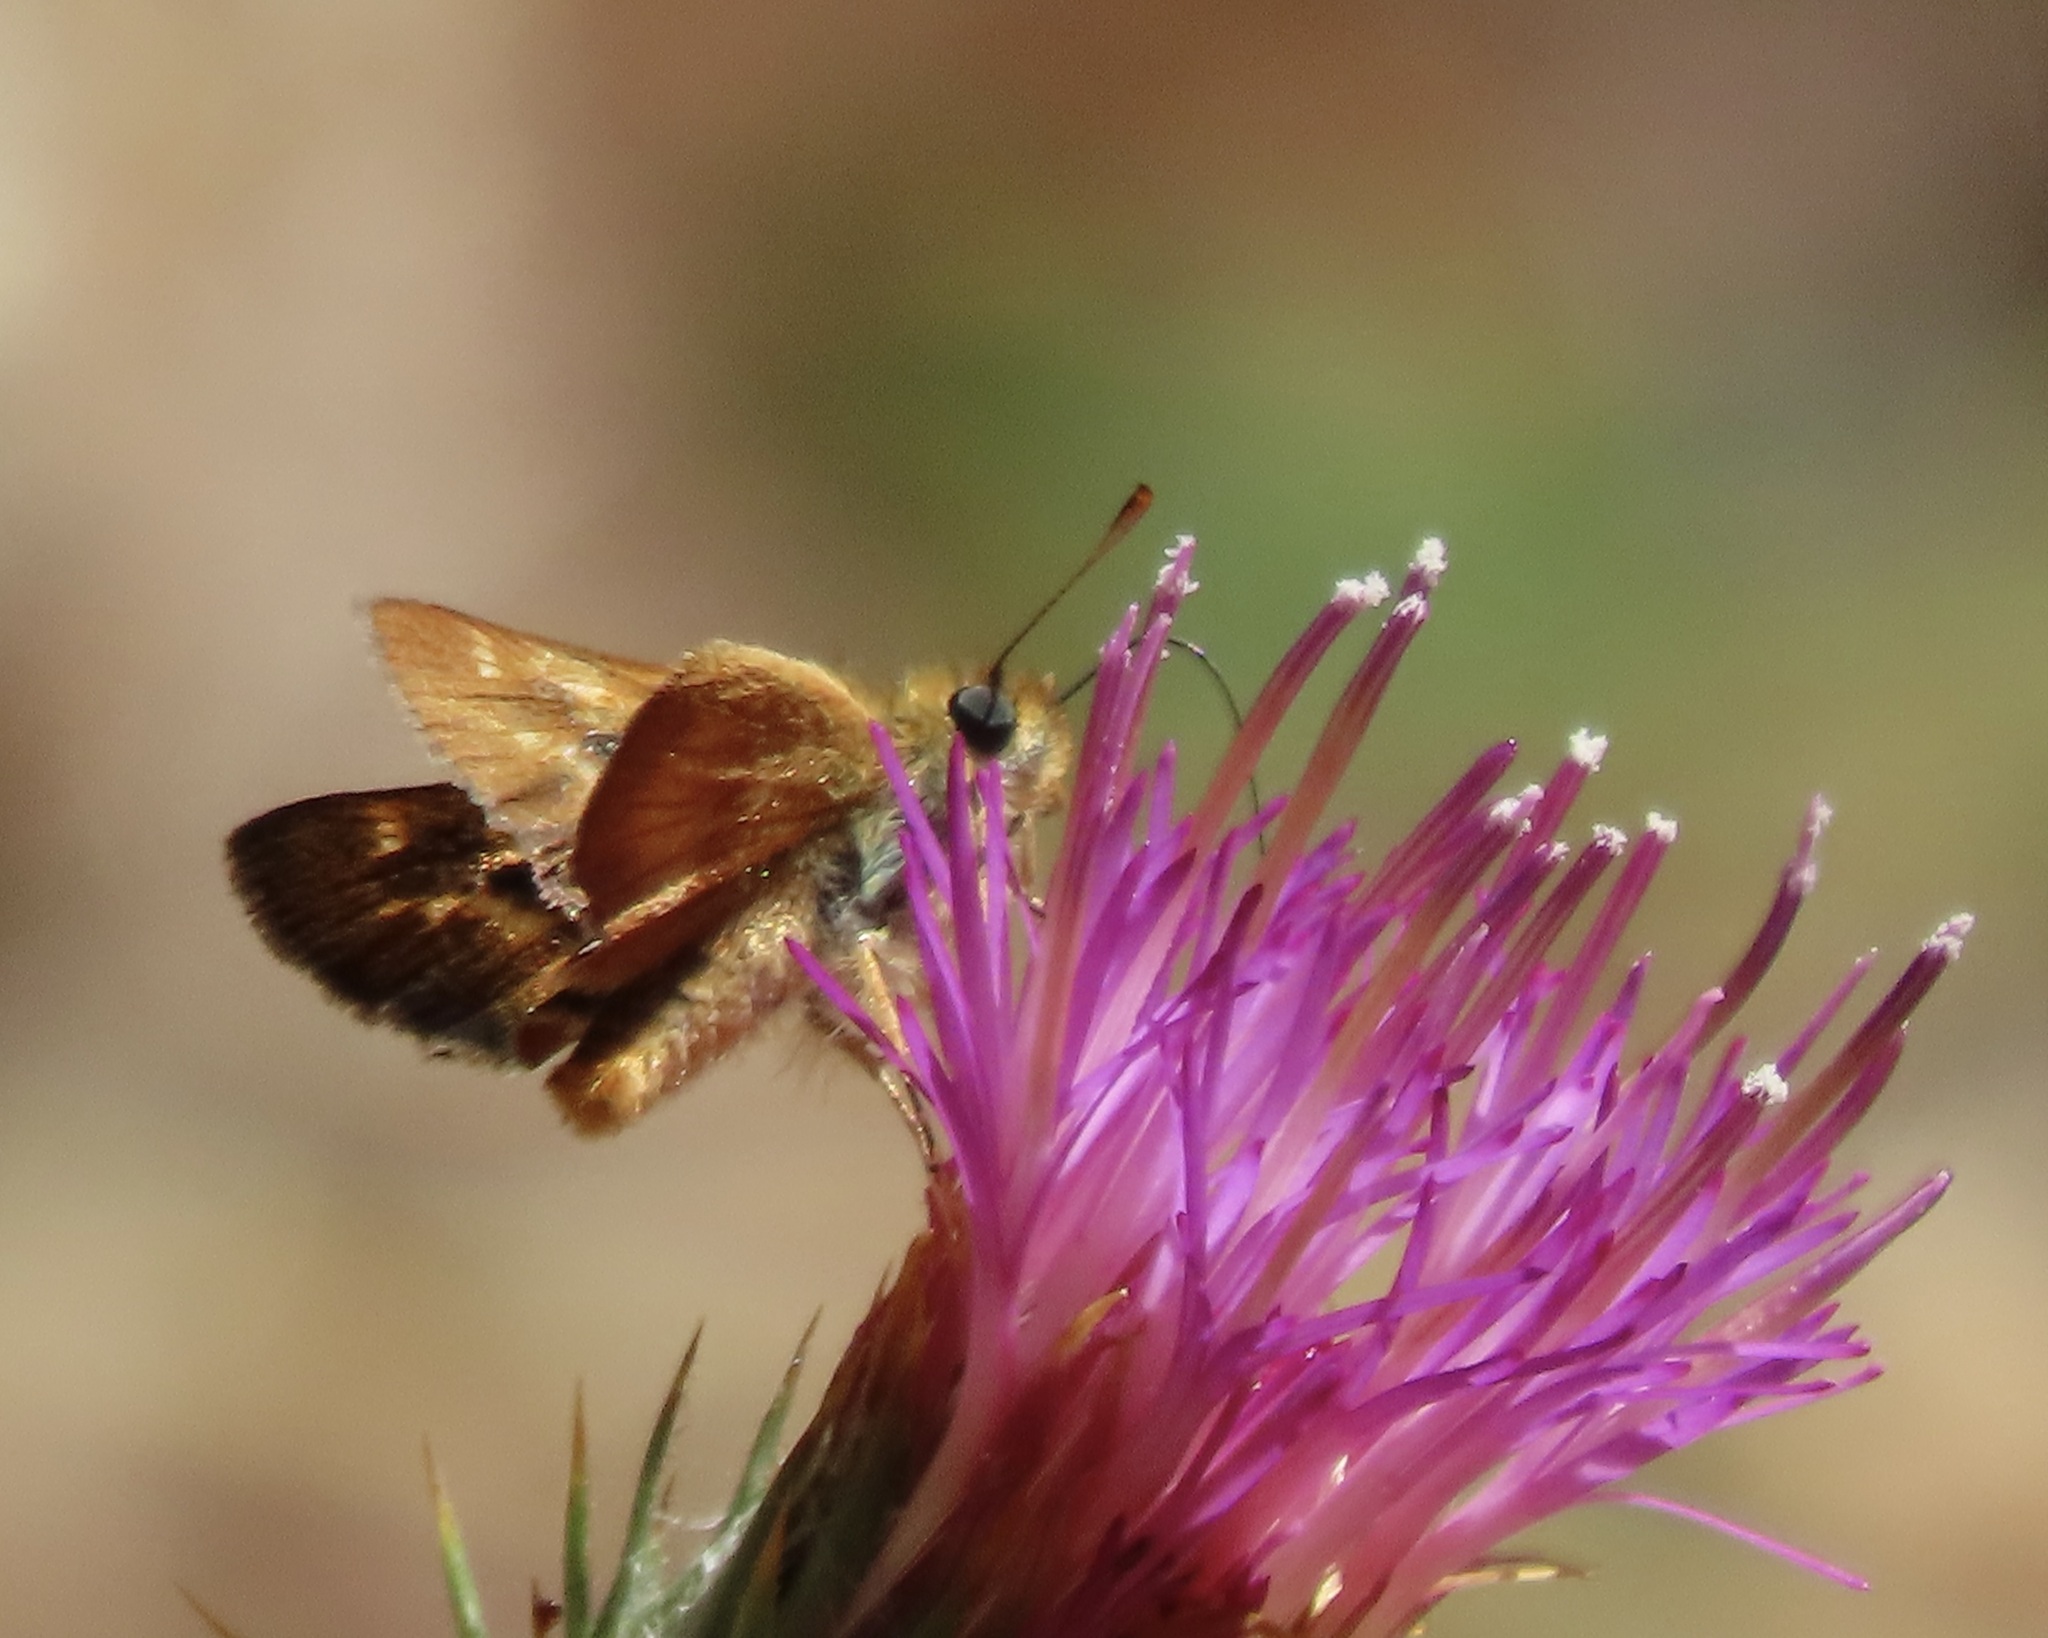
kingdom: Animalia
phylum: Arthropoda
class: Insecta
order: Lepidoptera
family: Hesperiidae
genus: Ochlodes
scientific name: Ochlodes agricola
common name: Rural skipper
